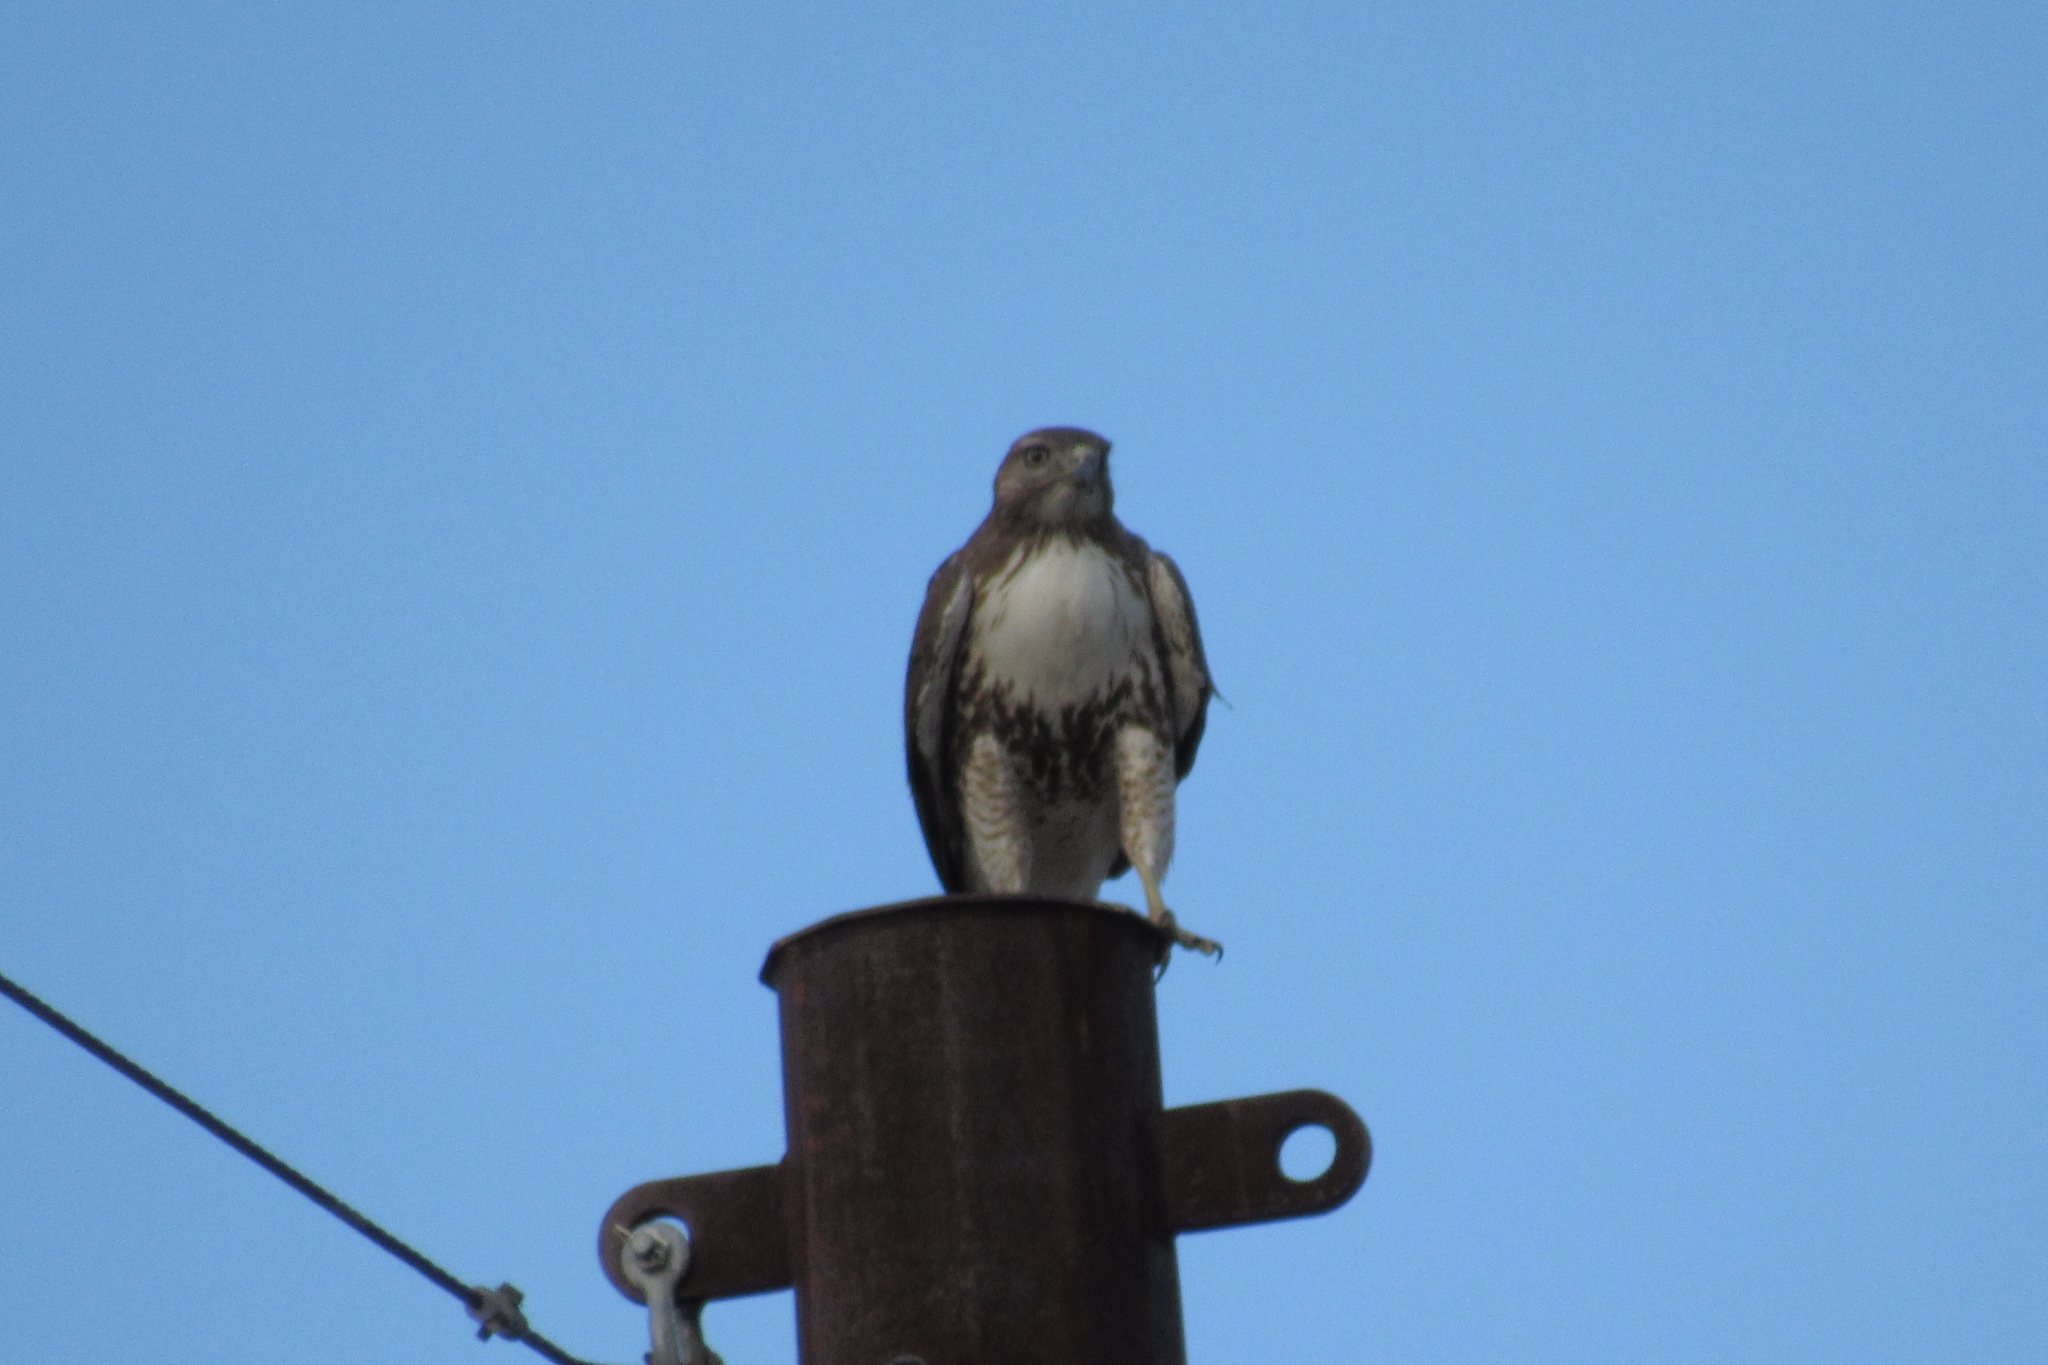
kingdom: Animalia
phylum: Chordata
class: Aves
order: Accipitriformes
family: Accipitridae
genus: Buteo
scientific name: Buteo jamaicensis
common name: Red-tailed hawk
